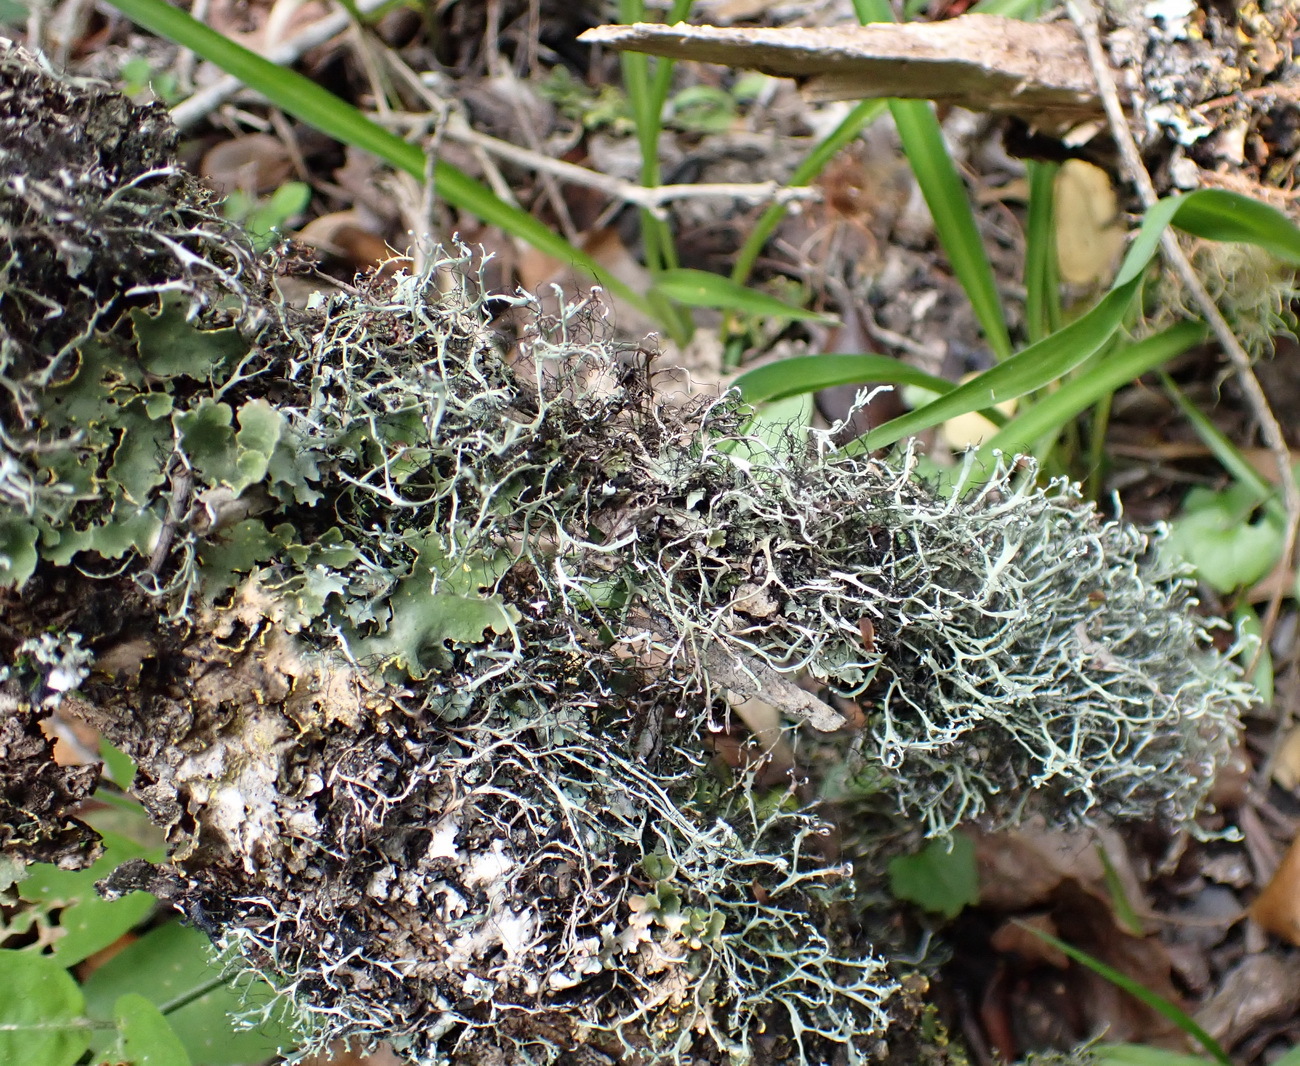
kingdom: Fungi
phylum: Ascomycota
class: Lecanoromycetes
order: Caliciales
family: Physciaceae
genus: Leucodermia
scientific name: Leucodermia leucomelos
